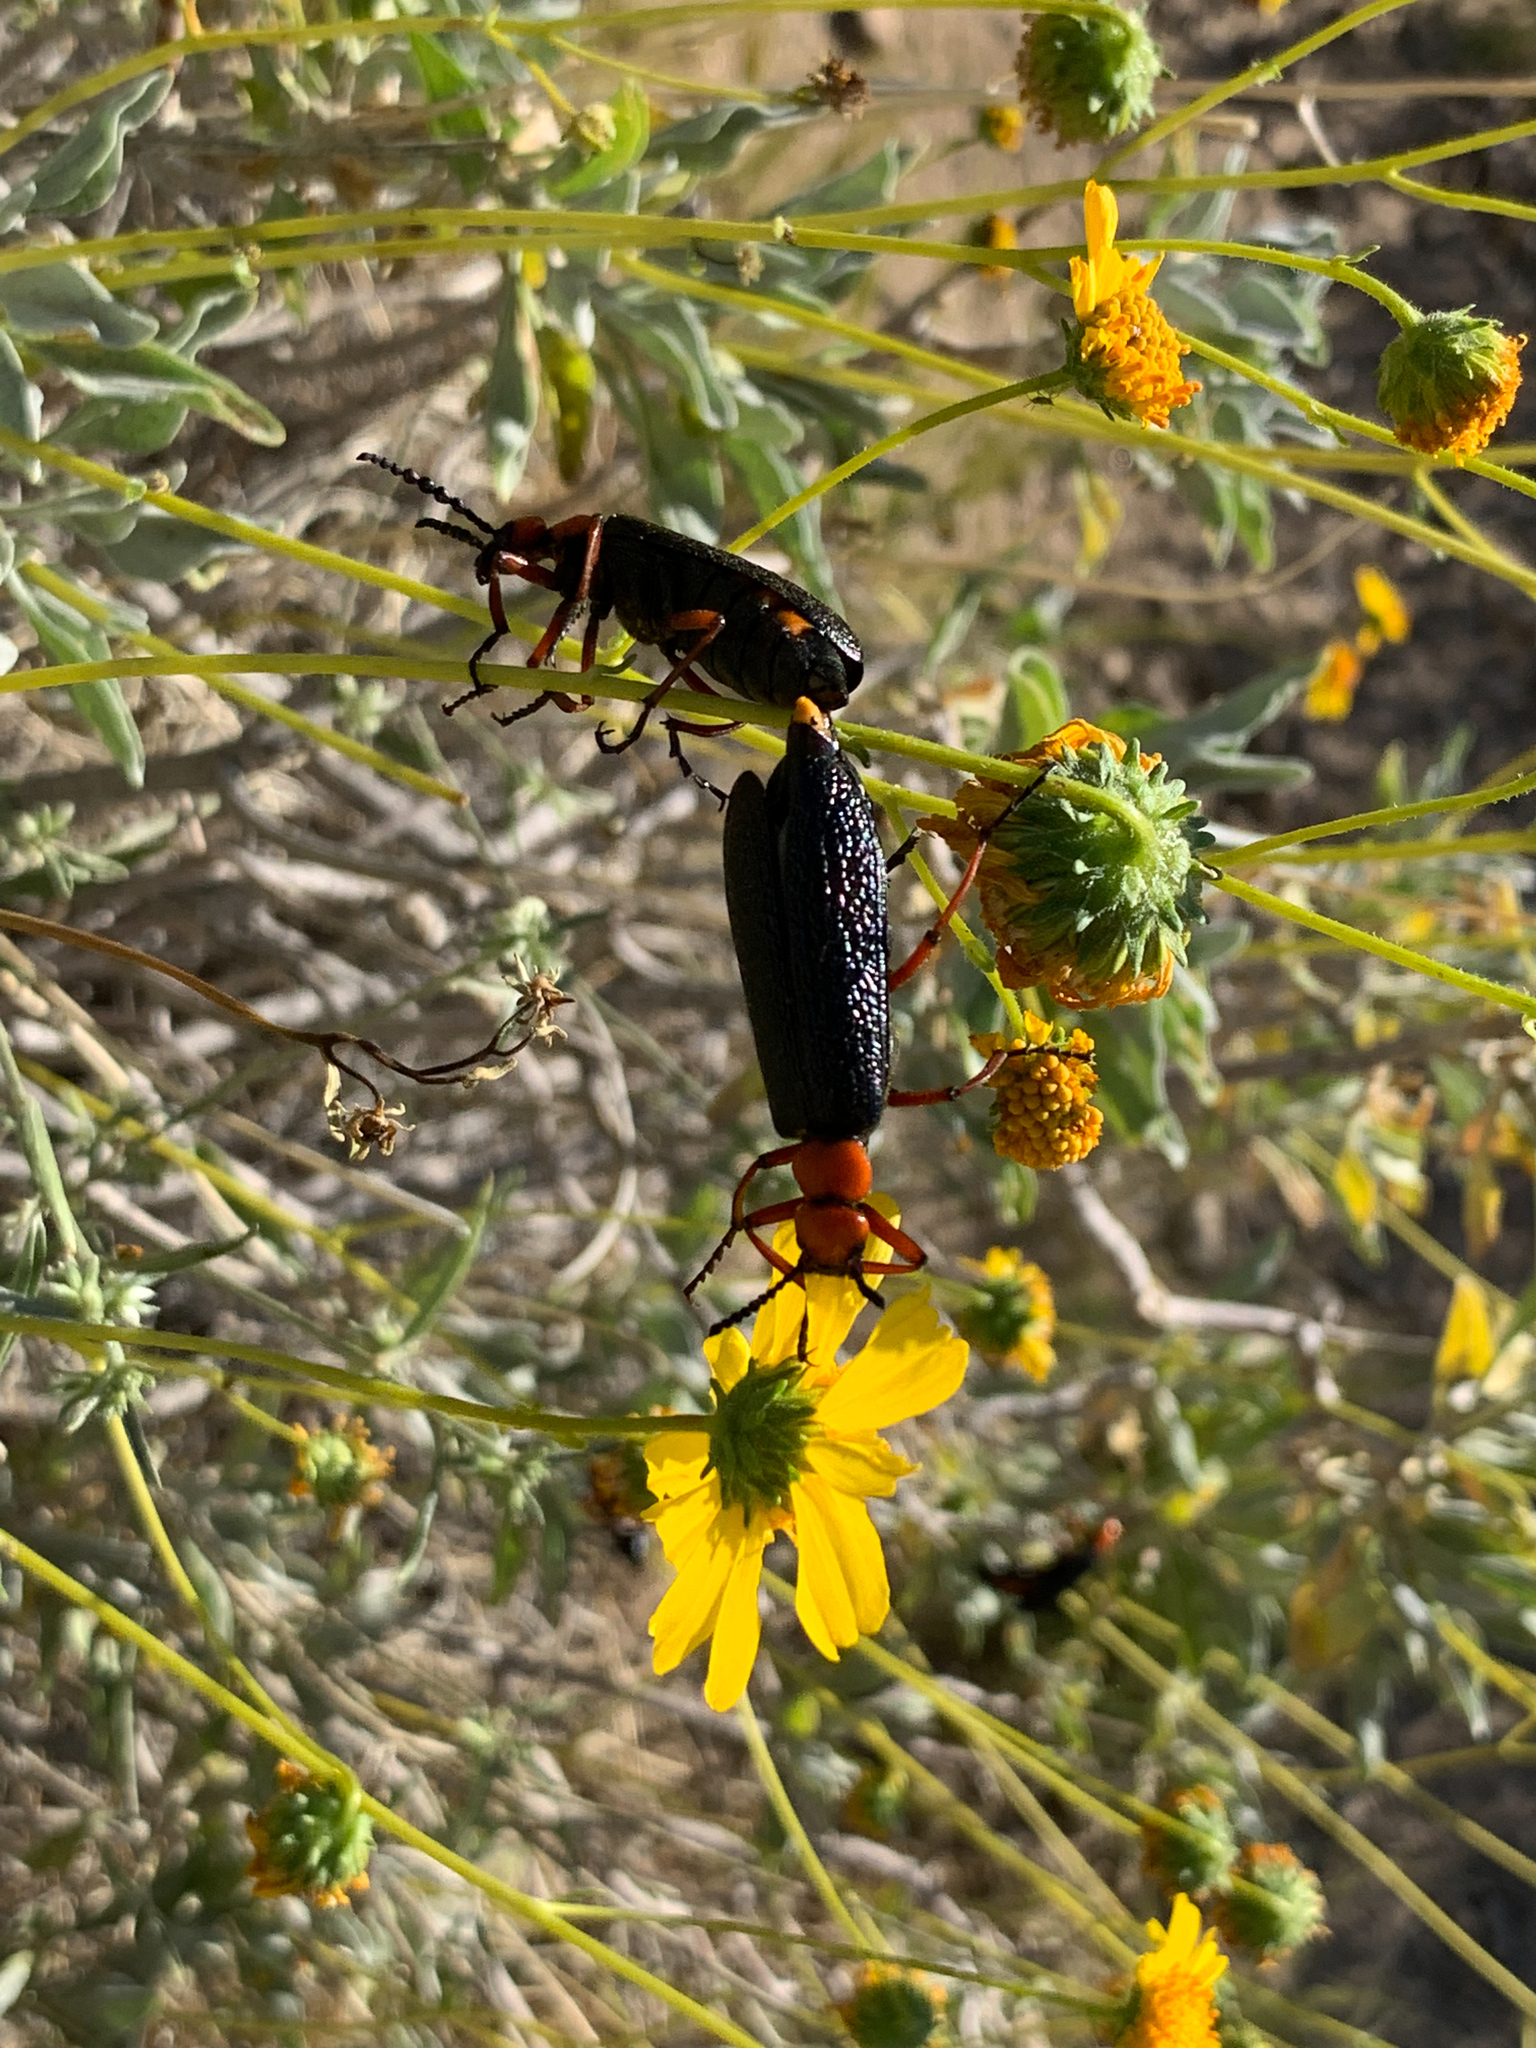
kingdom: Animalia
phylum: Arthropoda
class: Insecta
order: Coleoptera
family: Meloidae
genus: Lytta
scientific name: Lytta magister
